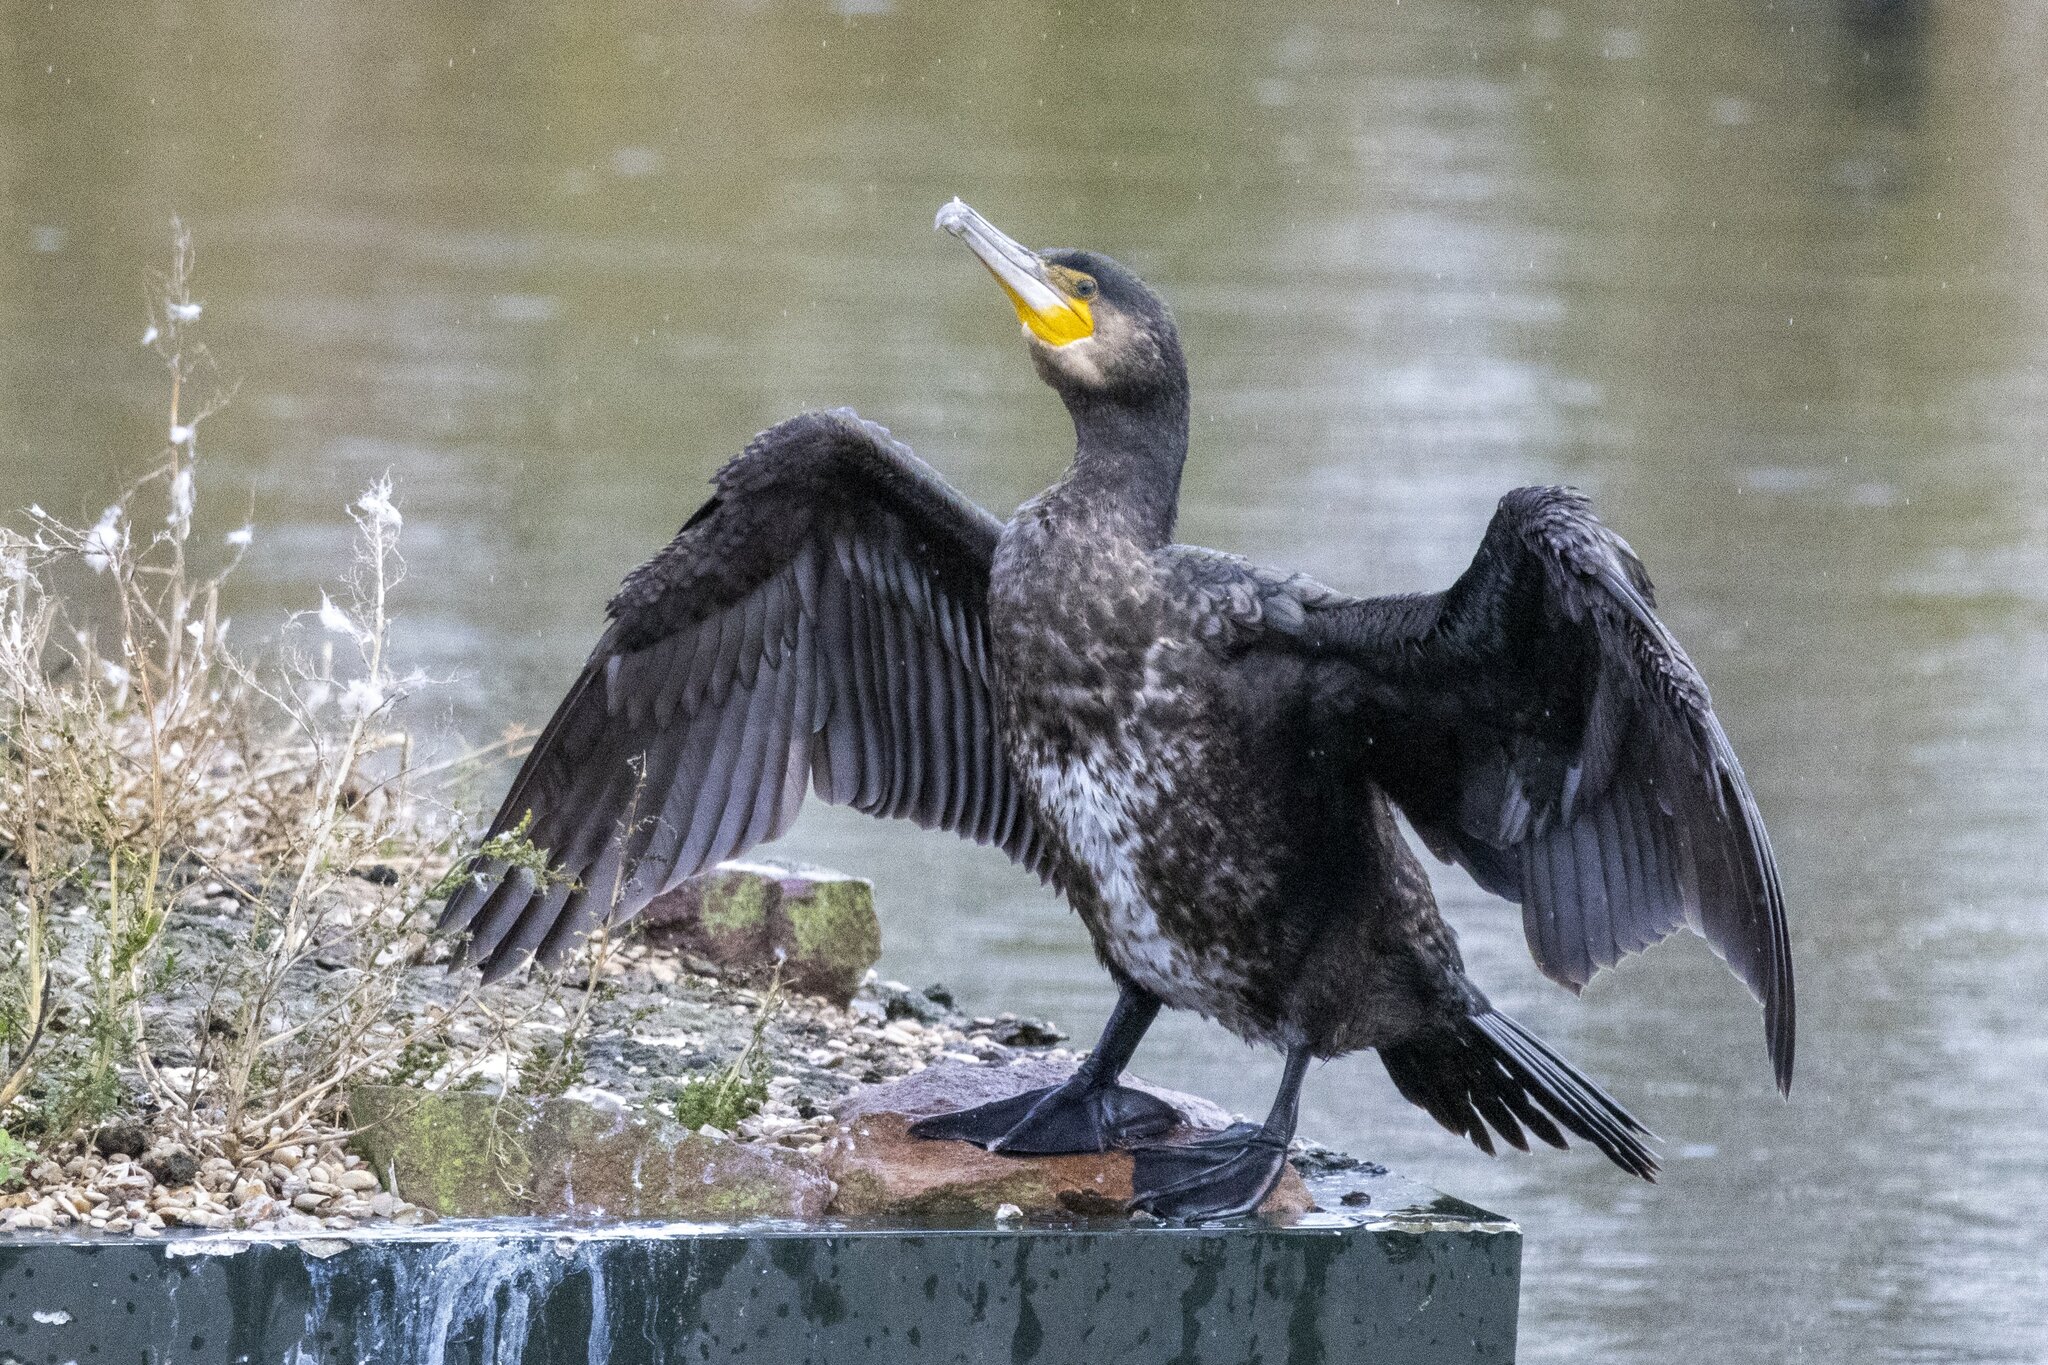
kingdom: Animalia
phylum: Chordata
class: Aves
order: Suliformes
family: Phalacrocoracidae
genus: Phalacrocorax
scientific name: Phalacrocorax carbo
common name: Great cormorant
